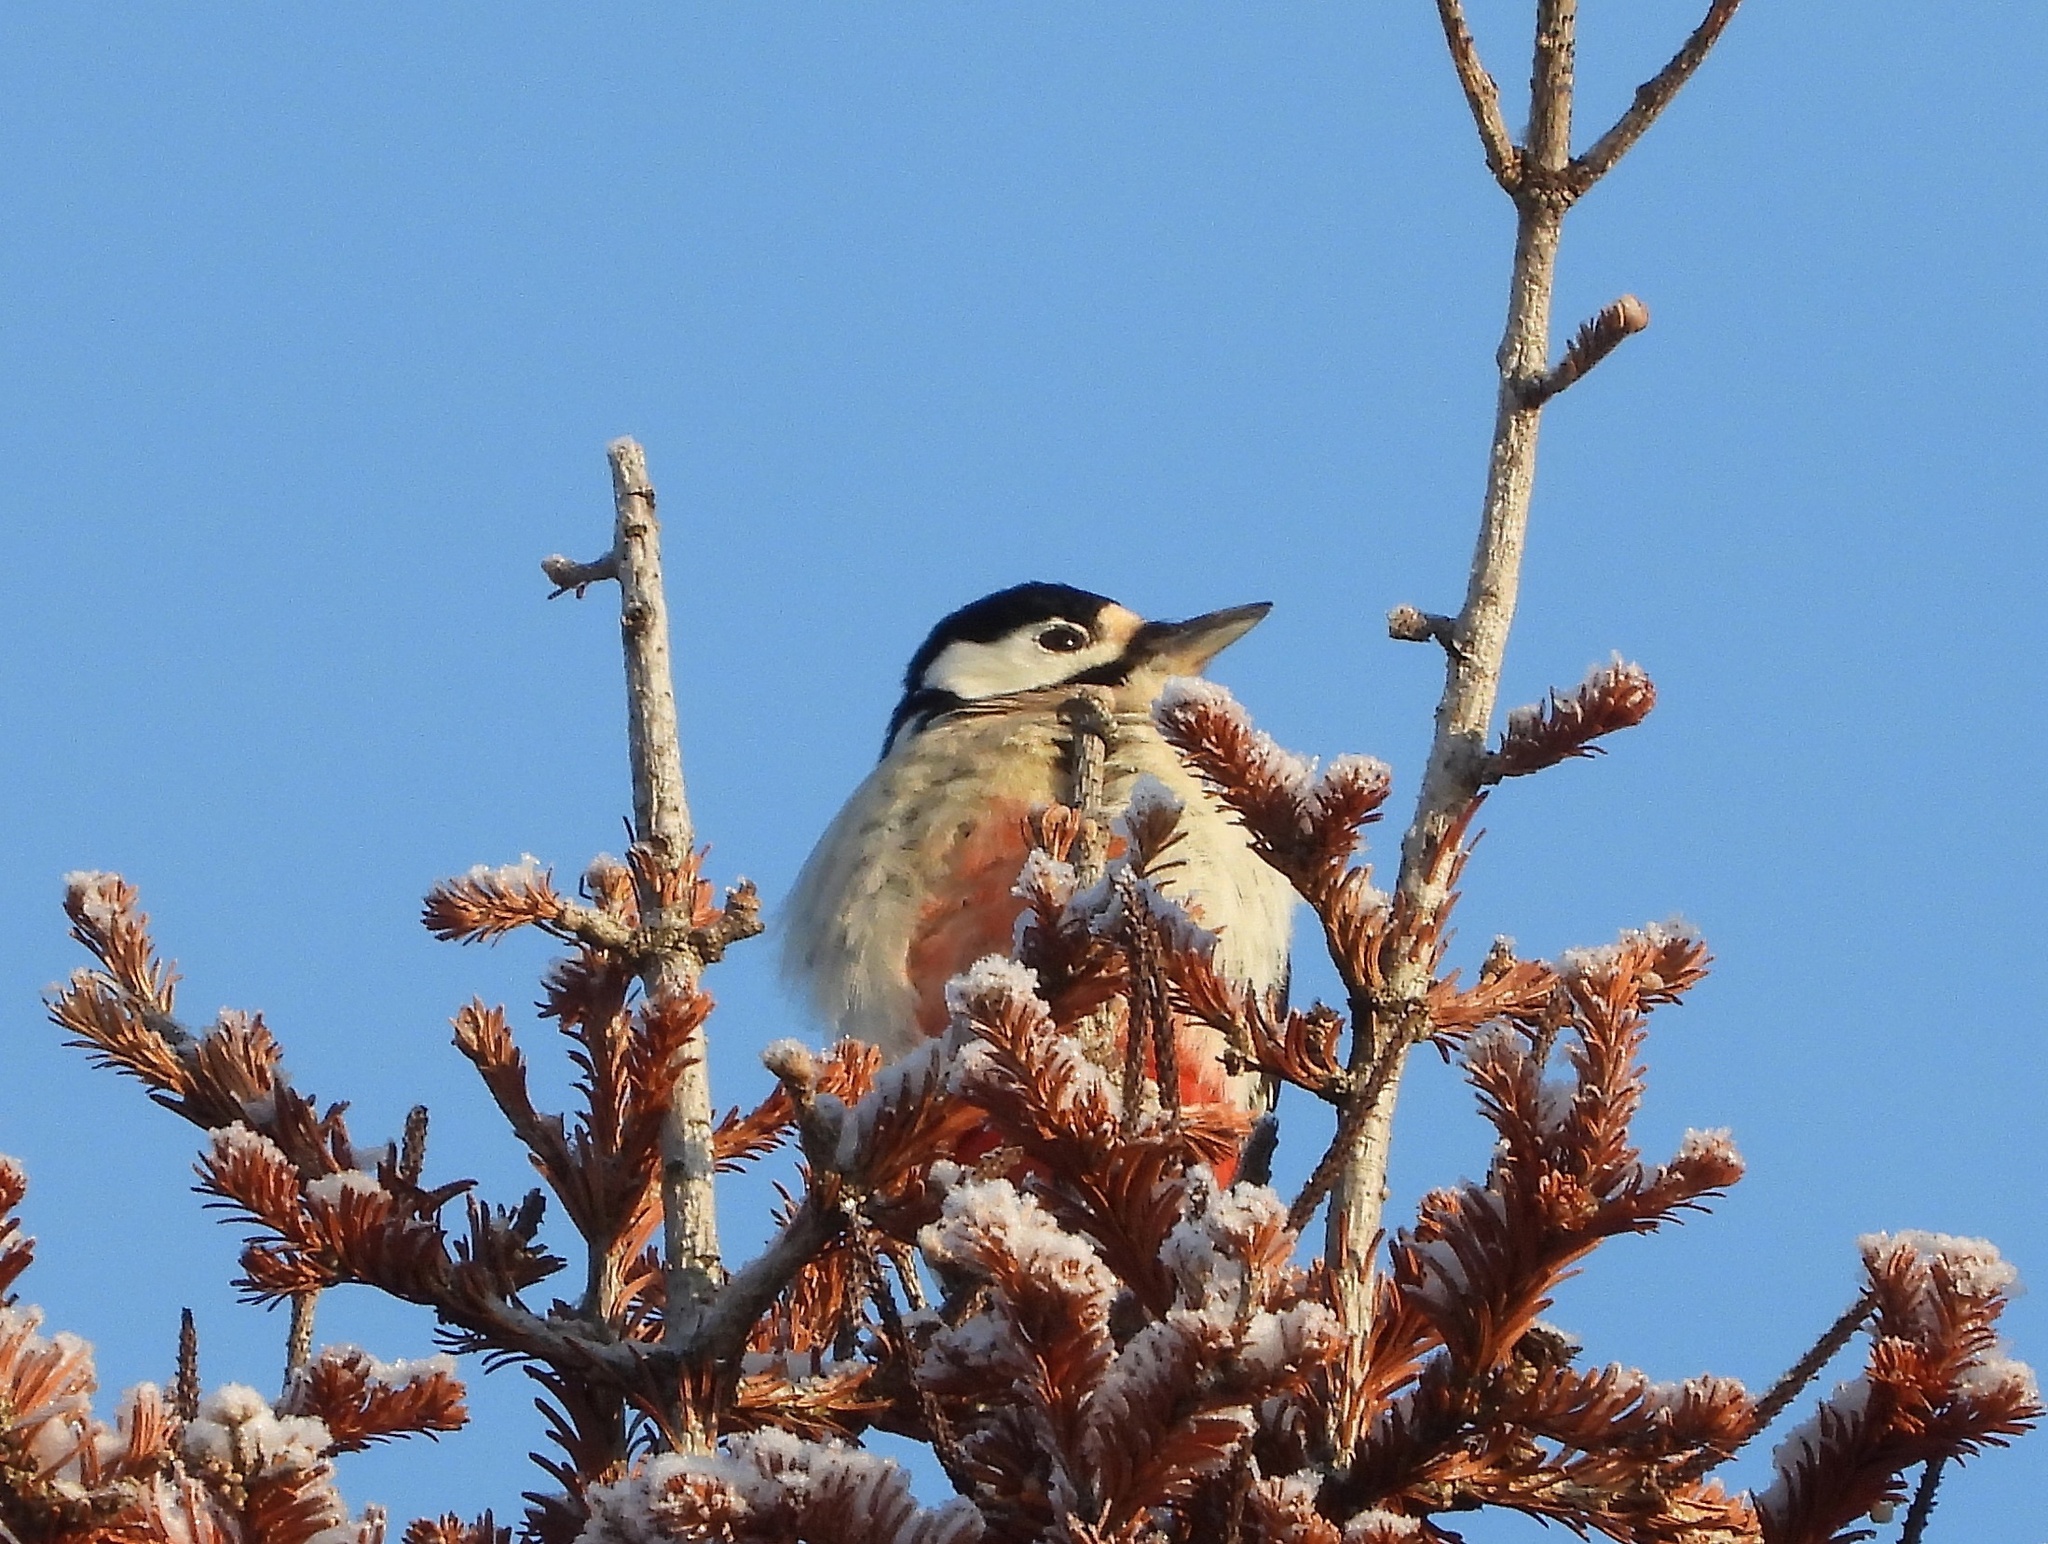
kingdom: Animalia
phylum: Chordata
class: Aves
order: Piciformes
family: Picidae
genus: Dendrocopos
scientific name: Dendrocopos major
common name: Great spotted woodpecker
